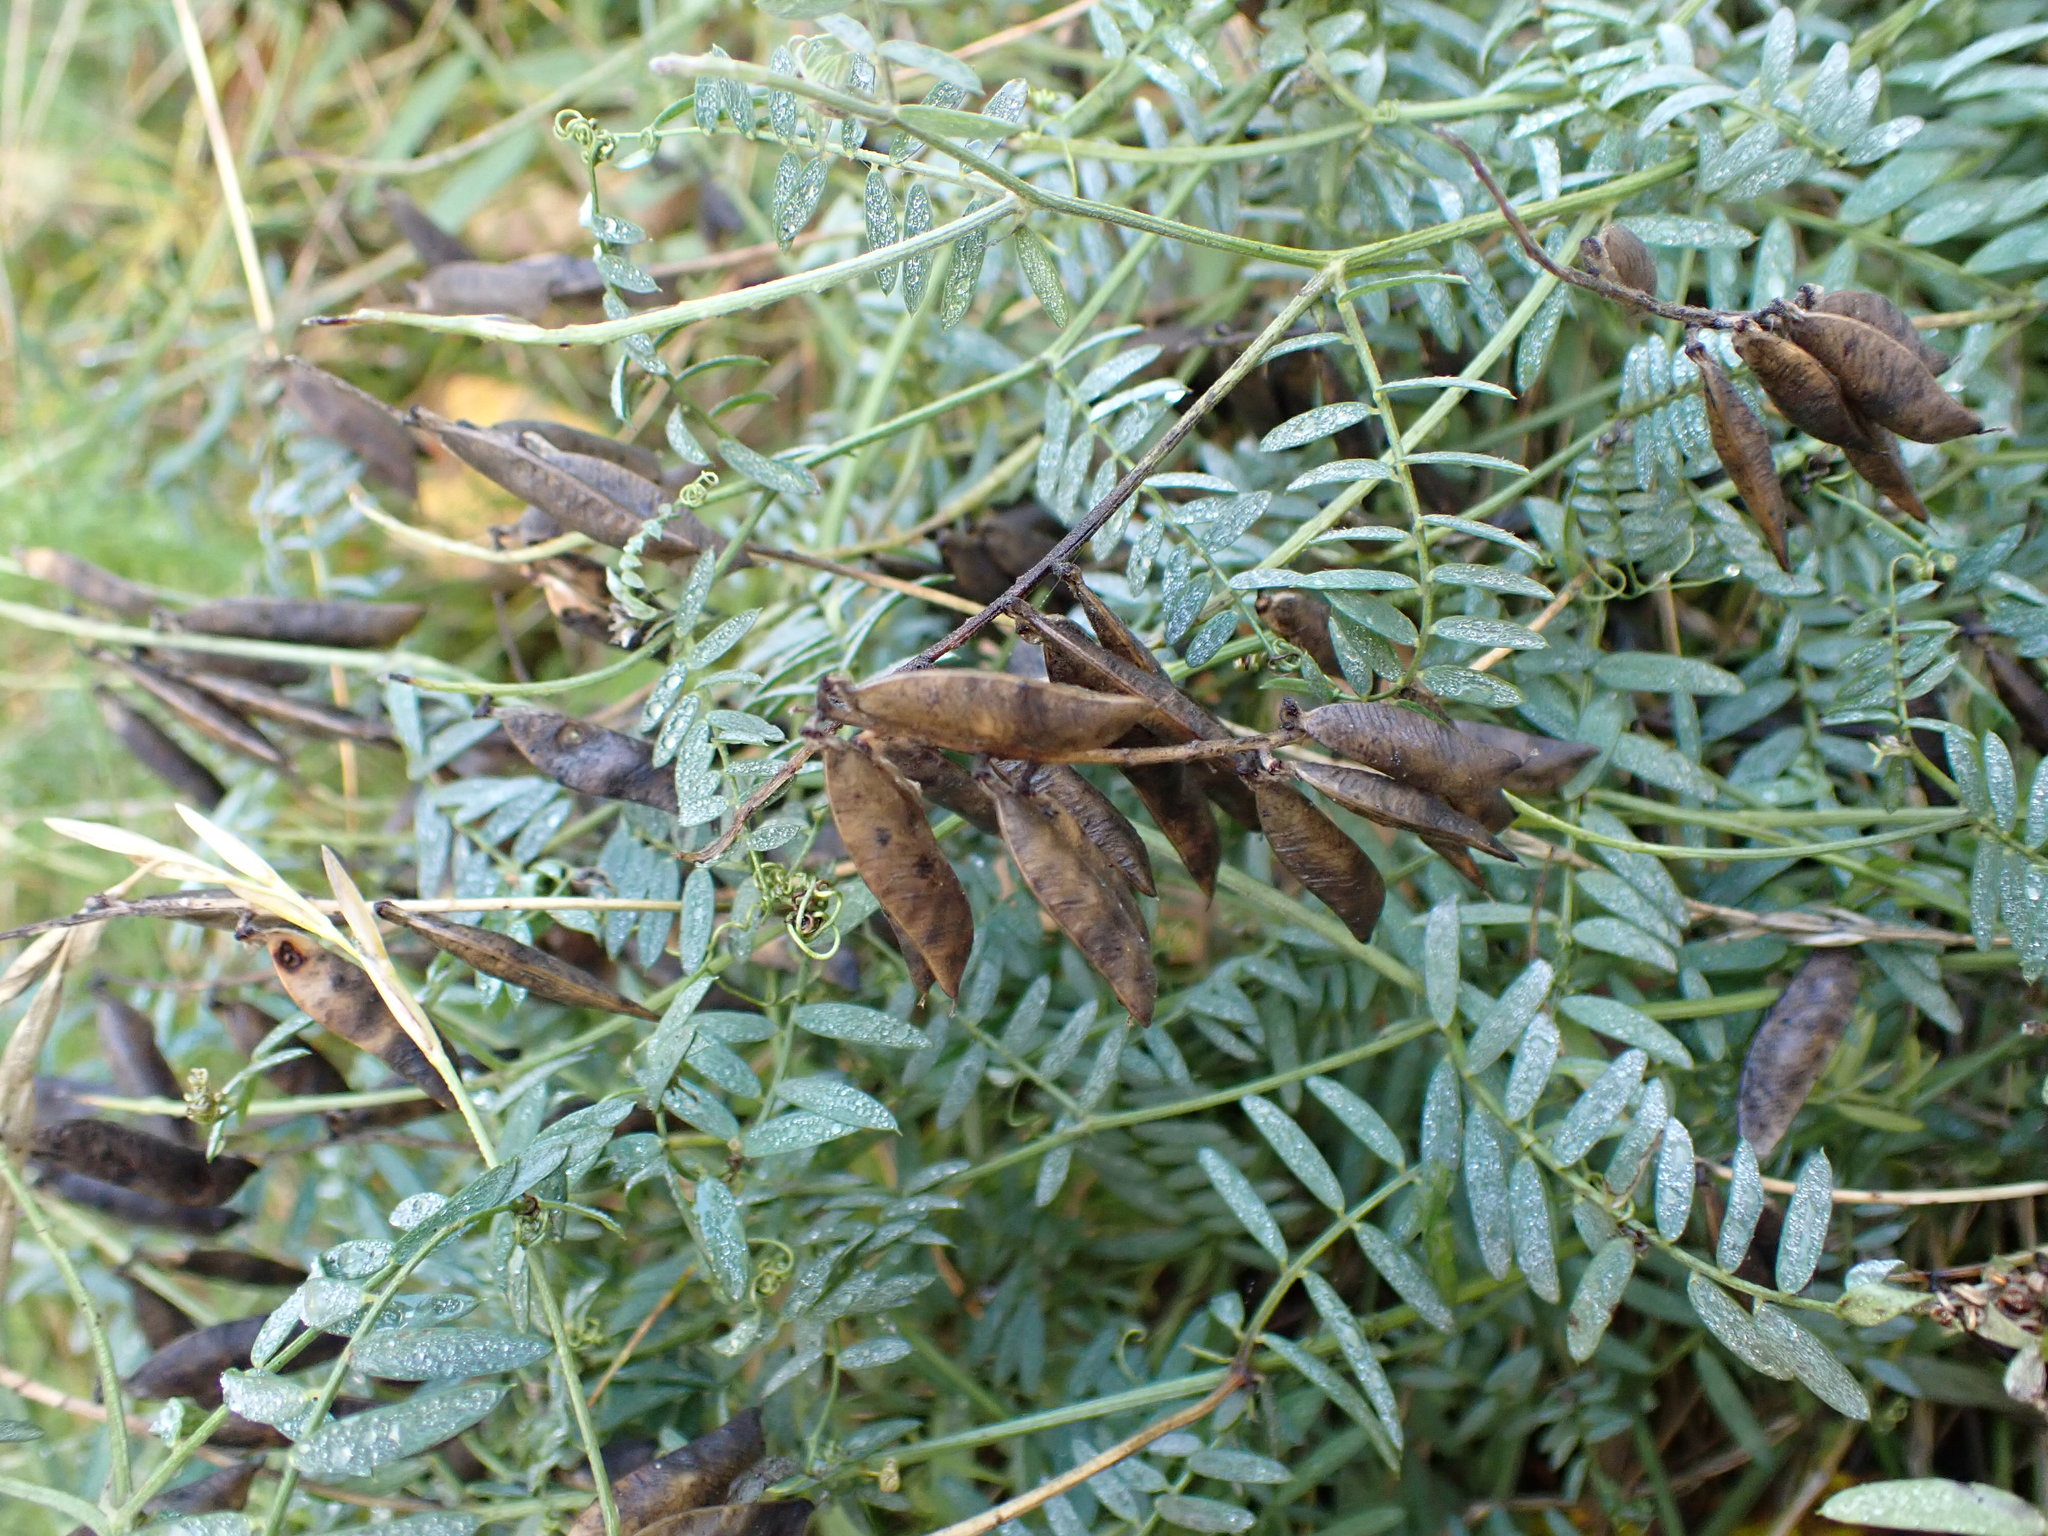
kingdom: Plantae
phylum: Tracheophyta
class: Magnoliopsida
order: Fabales
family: Fabaceae
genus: Vicia
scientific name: Vicia cracca
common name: Bird vetch
